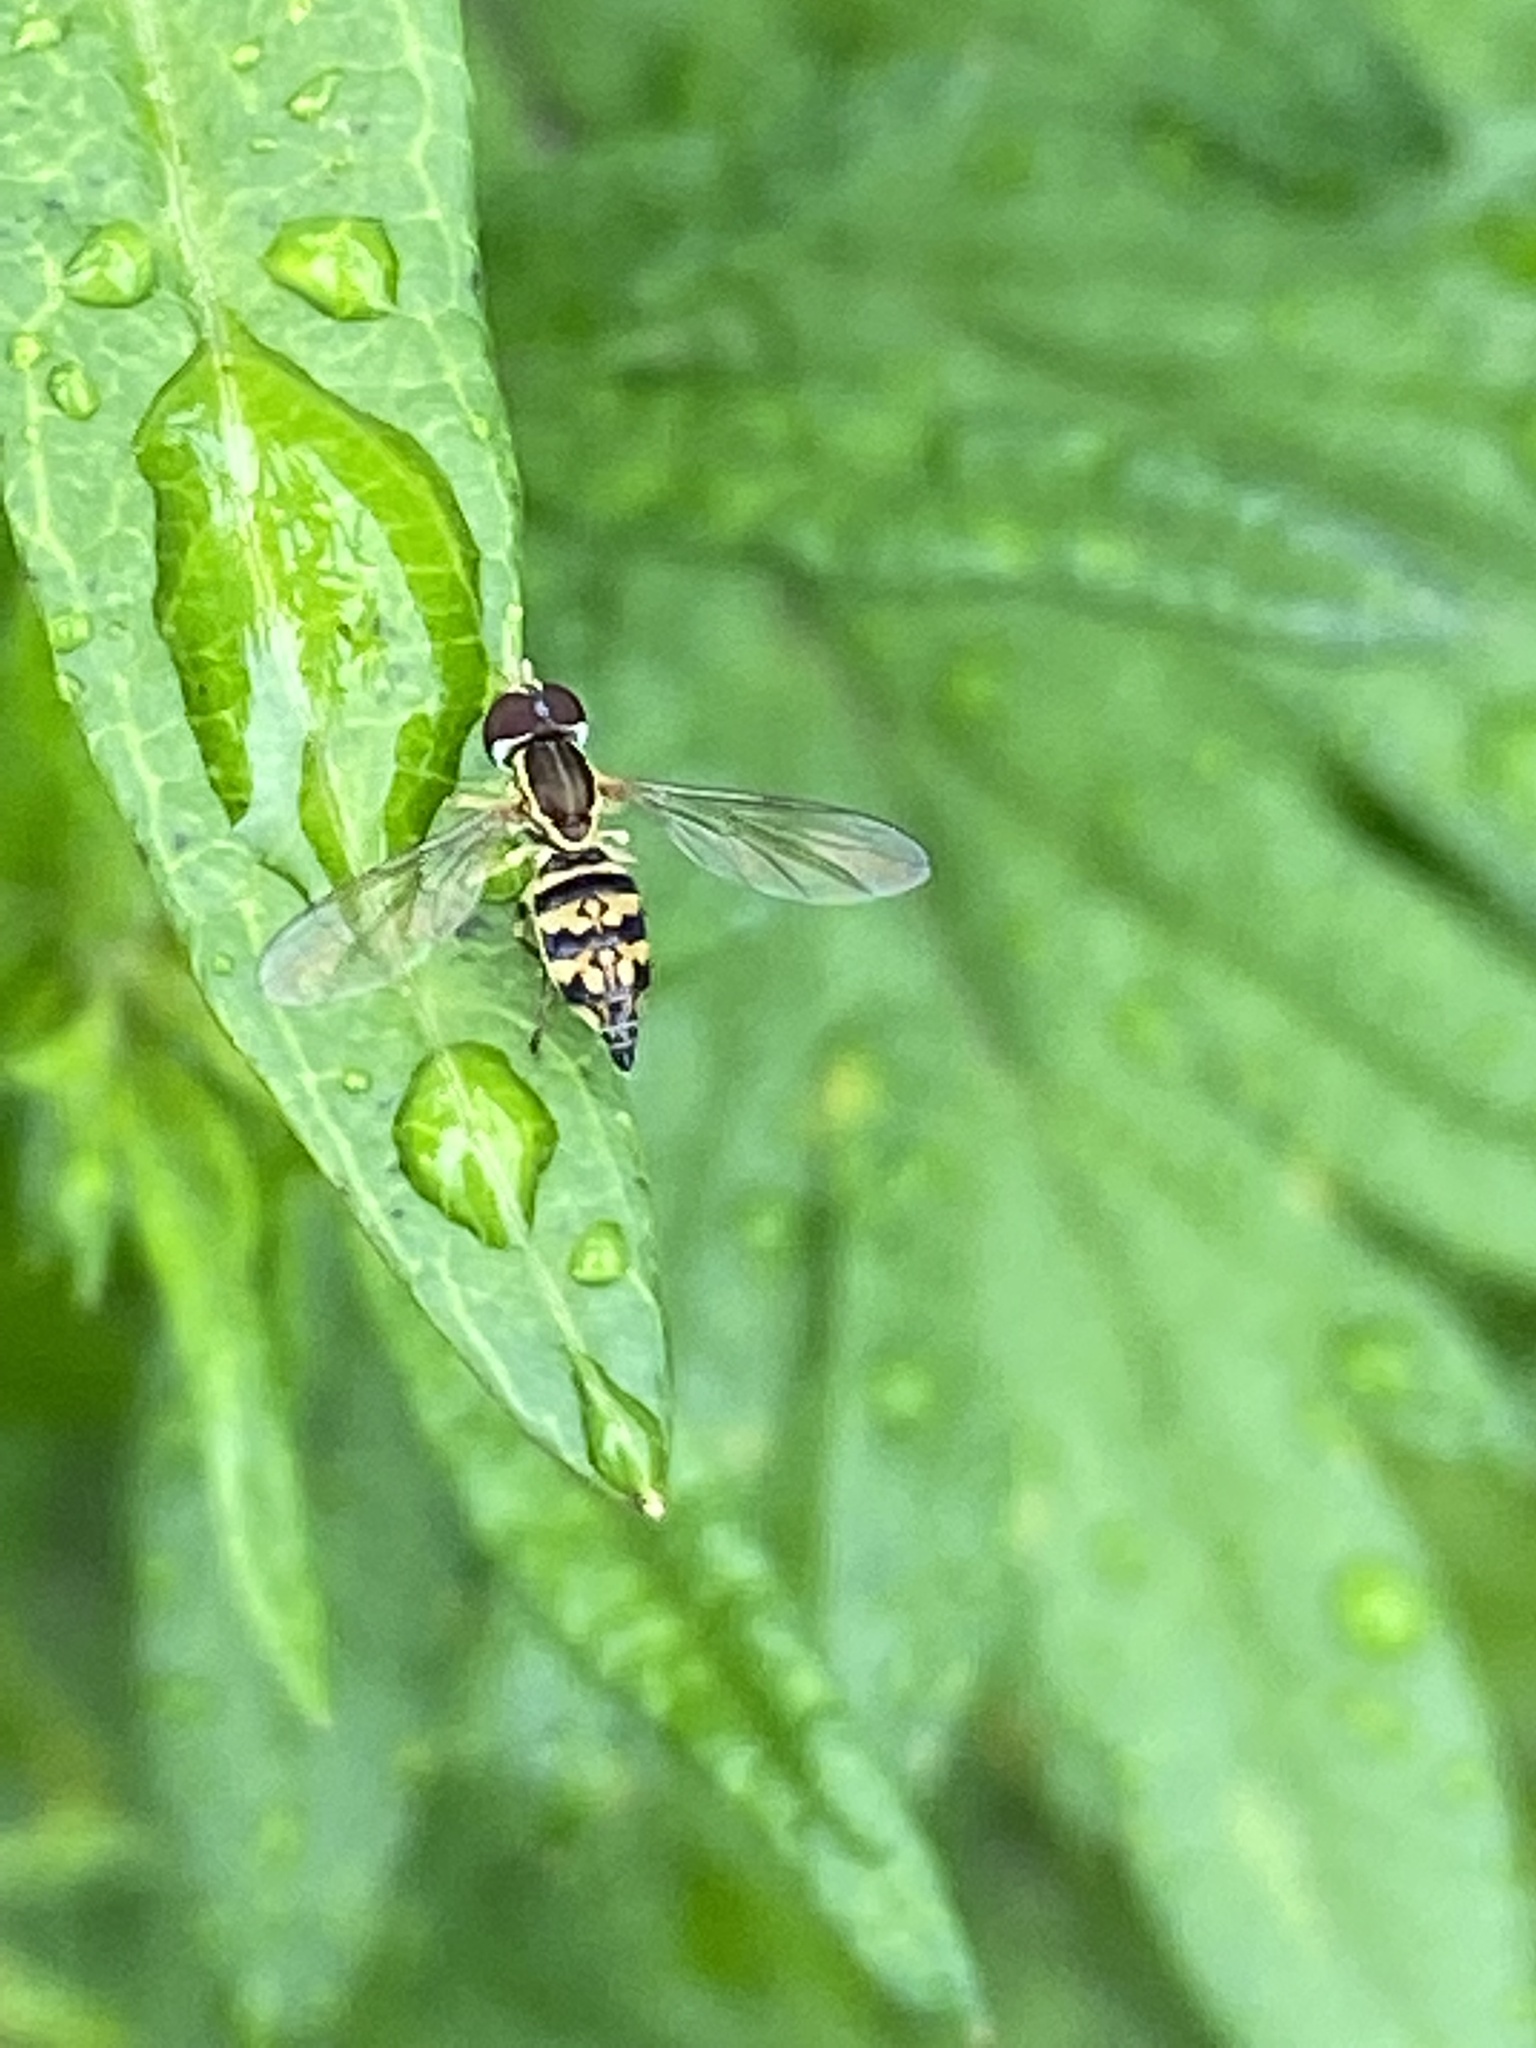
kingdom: Animalia
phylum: Arthropoda
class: Insecta
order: Diptera
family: Syrphidae
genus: Toxomerus
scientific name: Toxomerus geminatus
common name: Eastern calligrapher
